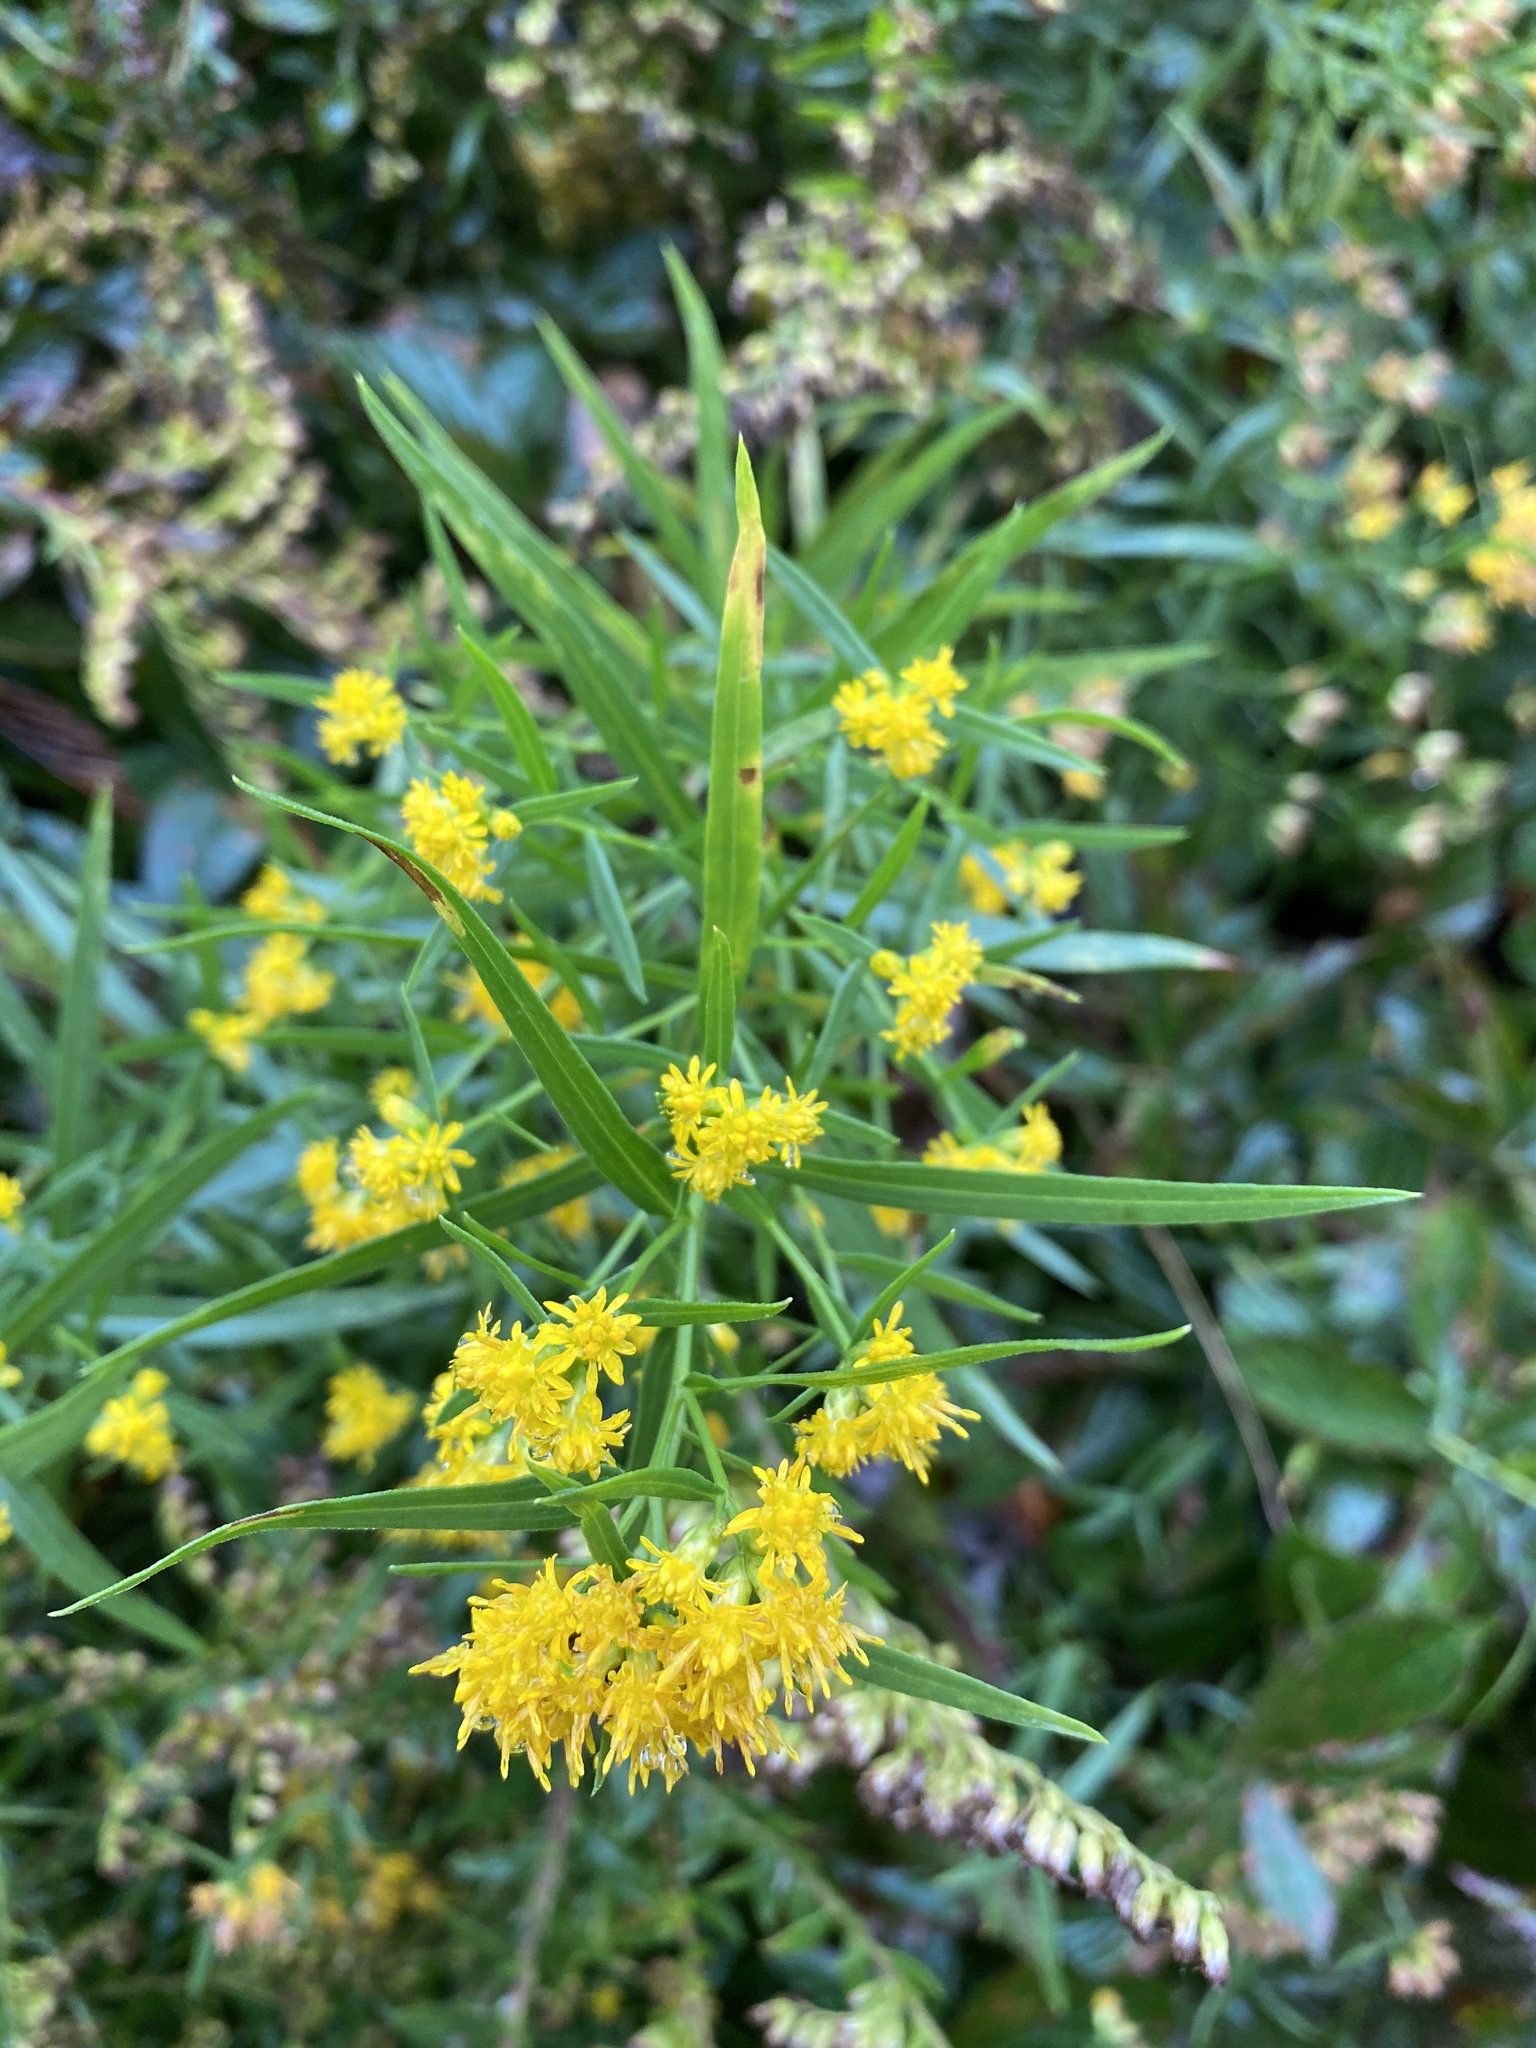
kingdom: Plantae
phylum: Tracheophyta
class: Magnoliopsida
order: Asterales
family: Asteraceae
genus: Euthamia
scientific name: Euthamia graminifolia
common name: Common goldentop
